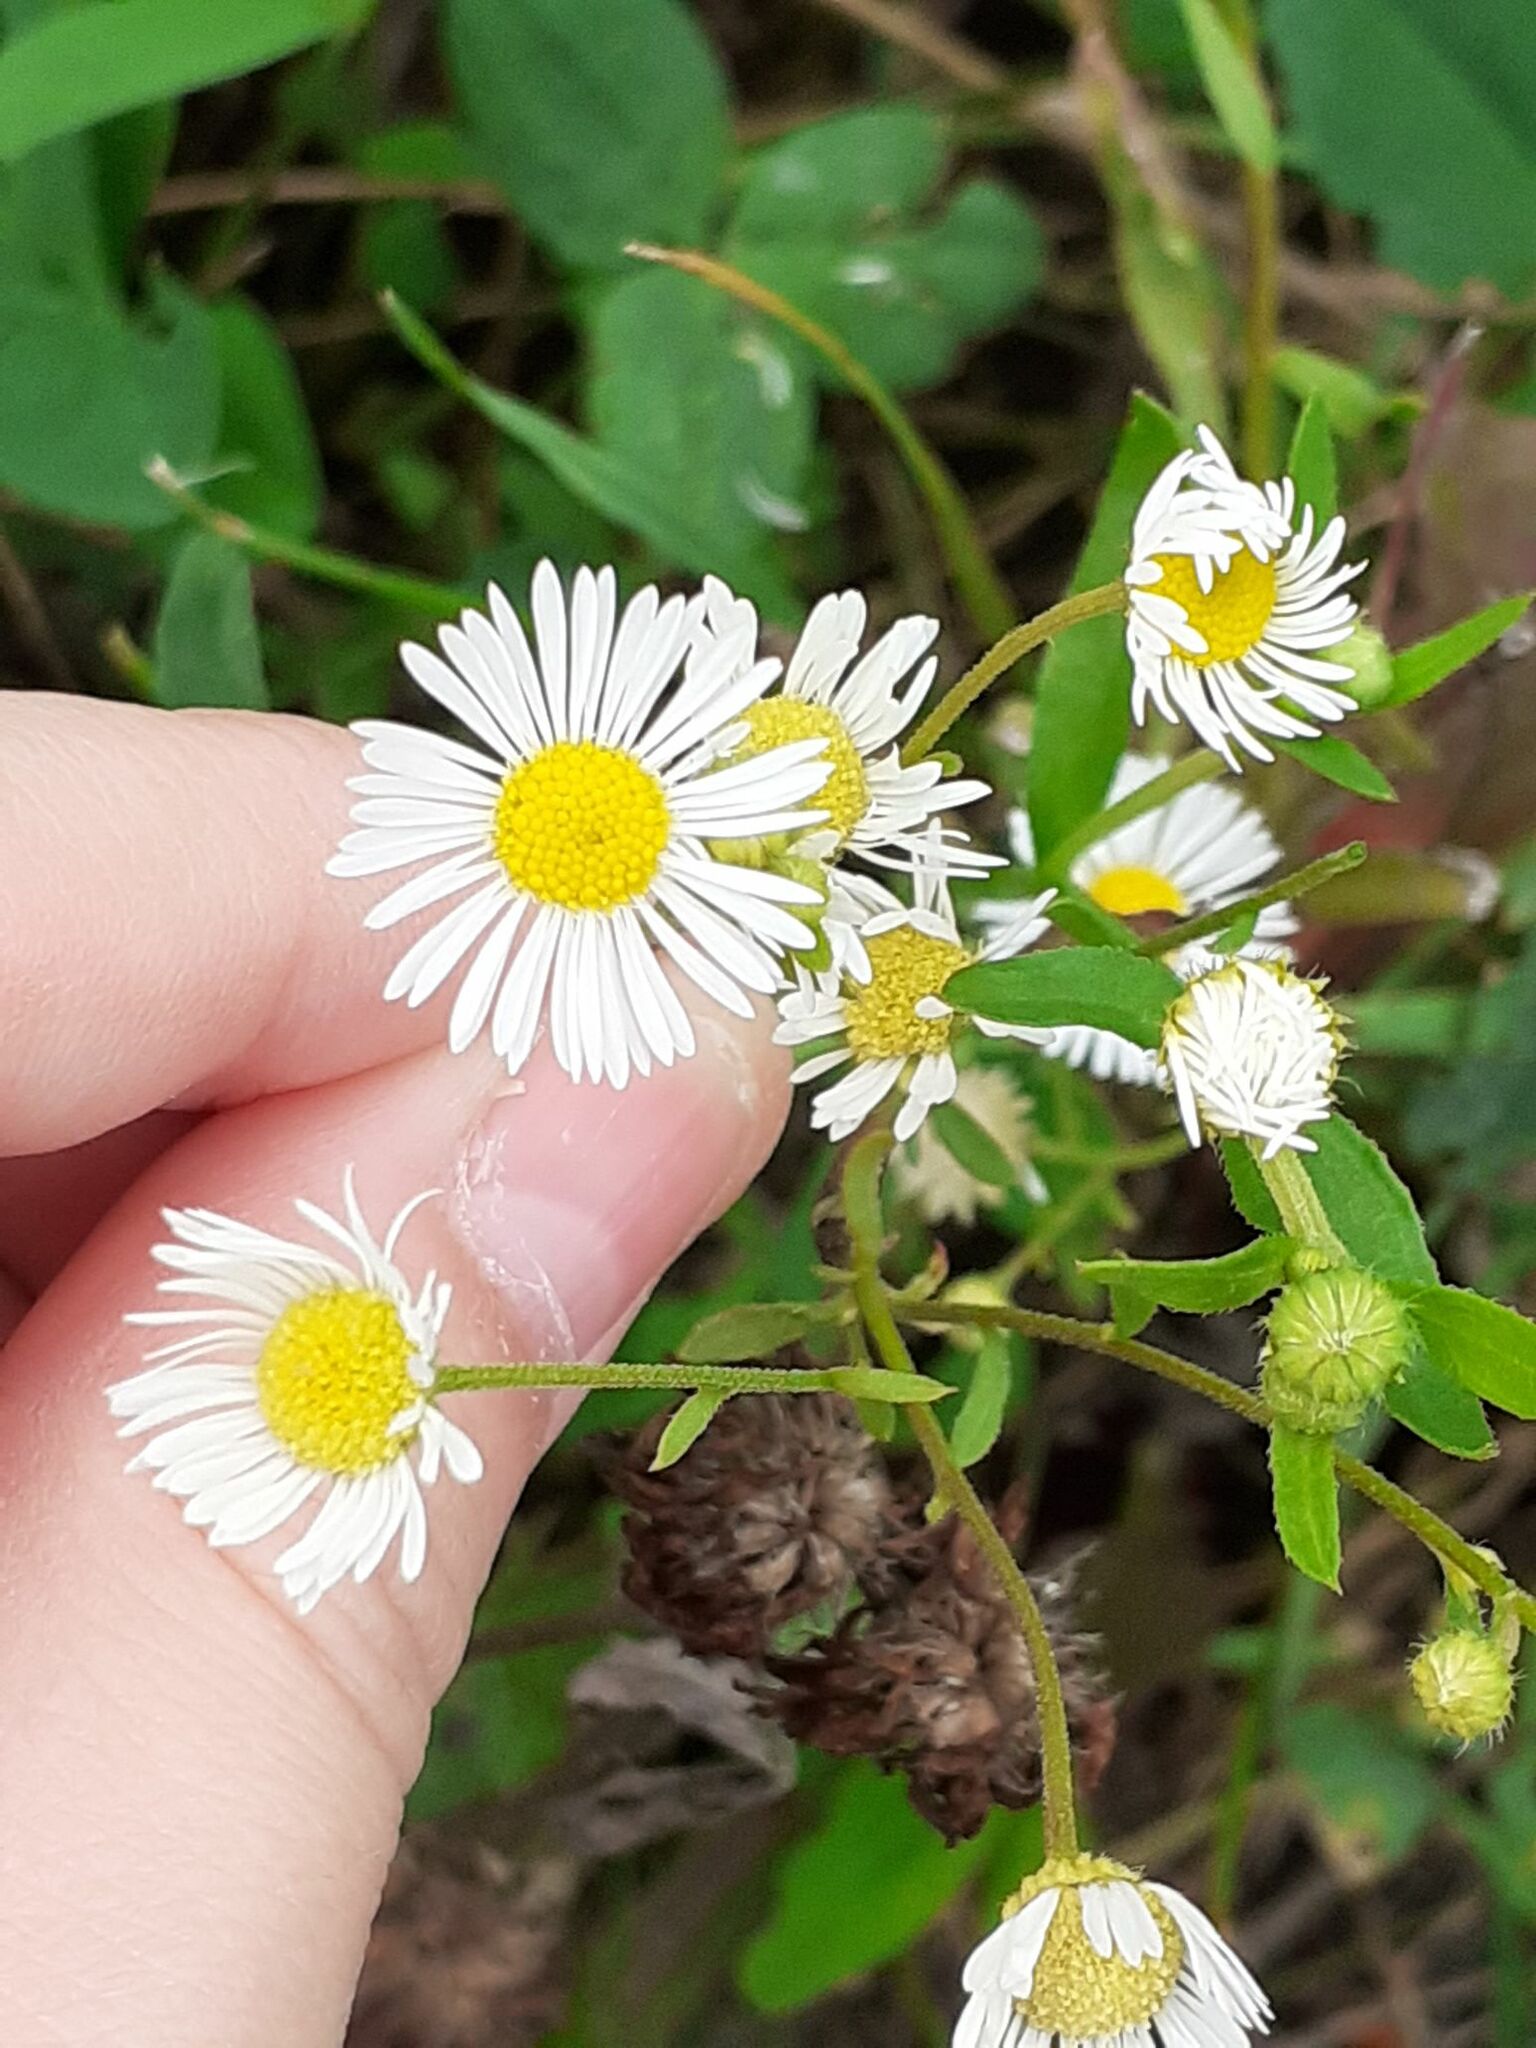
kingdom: Plantae
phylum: Tracheophyta
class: Magnoliopsida
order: Asterales
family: Asteraceae
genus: Erigeron
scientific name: Erigeron annuus
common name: Tall fleabane
